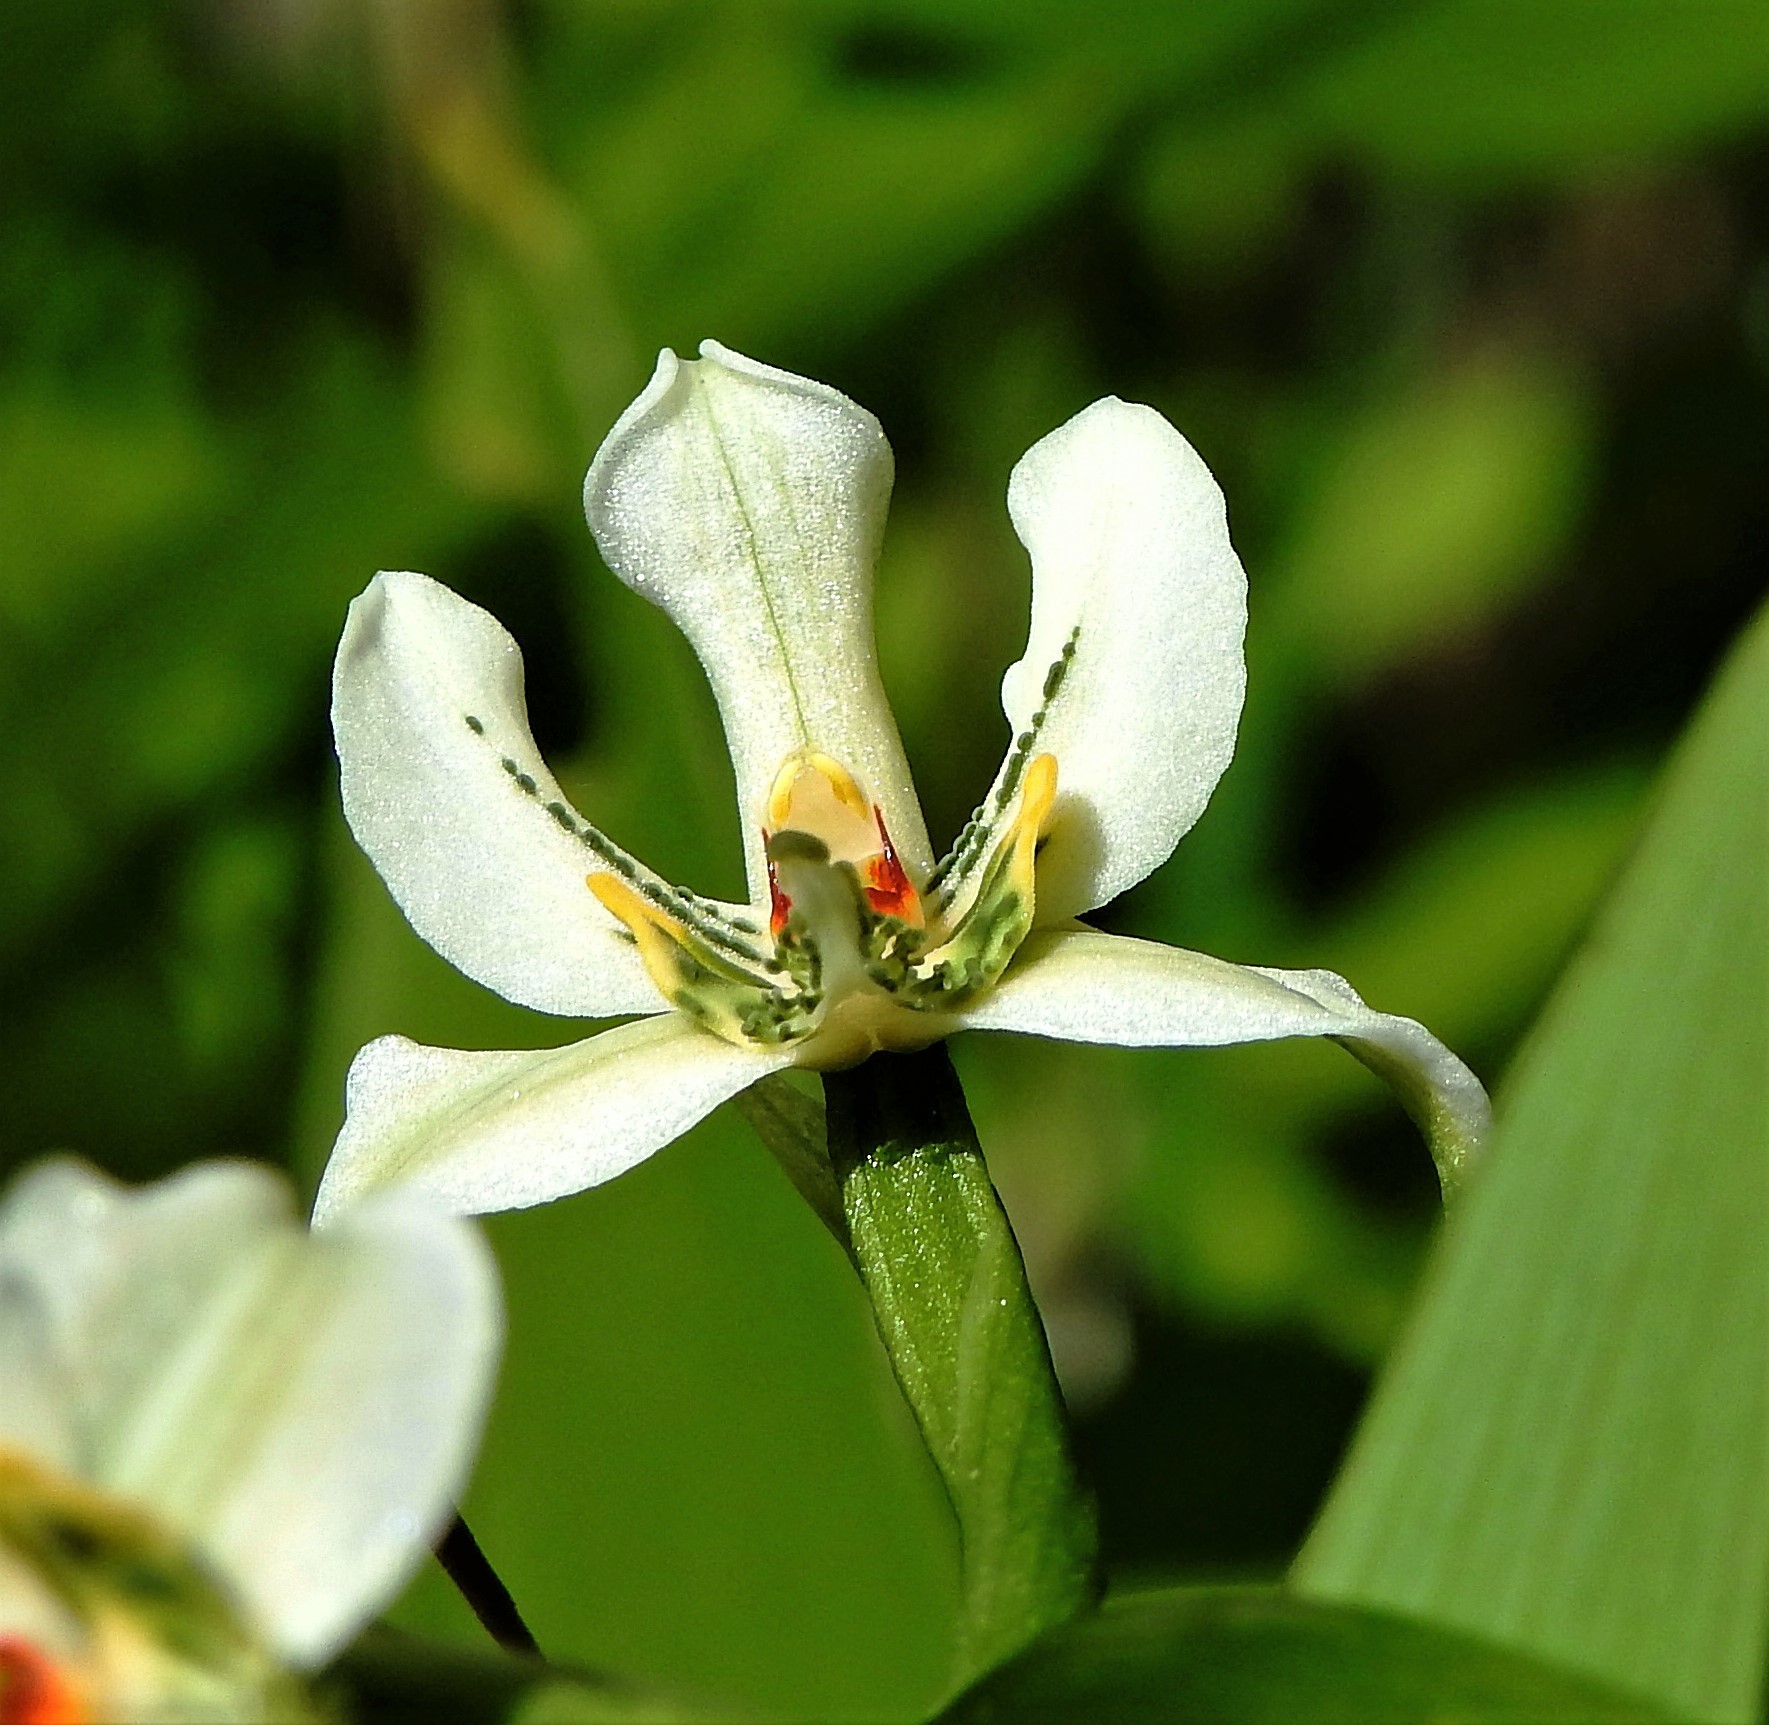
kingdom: Plantae
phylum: Tracheophyta
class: Liliopsida
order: Asparagales
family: Orchidaceae
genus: Gavilea
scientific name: Gavilea araucana
